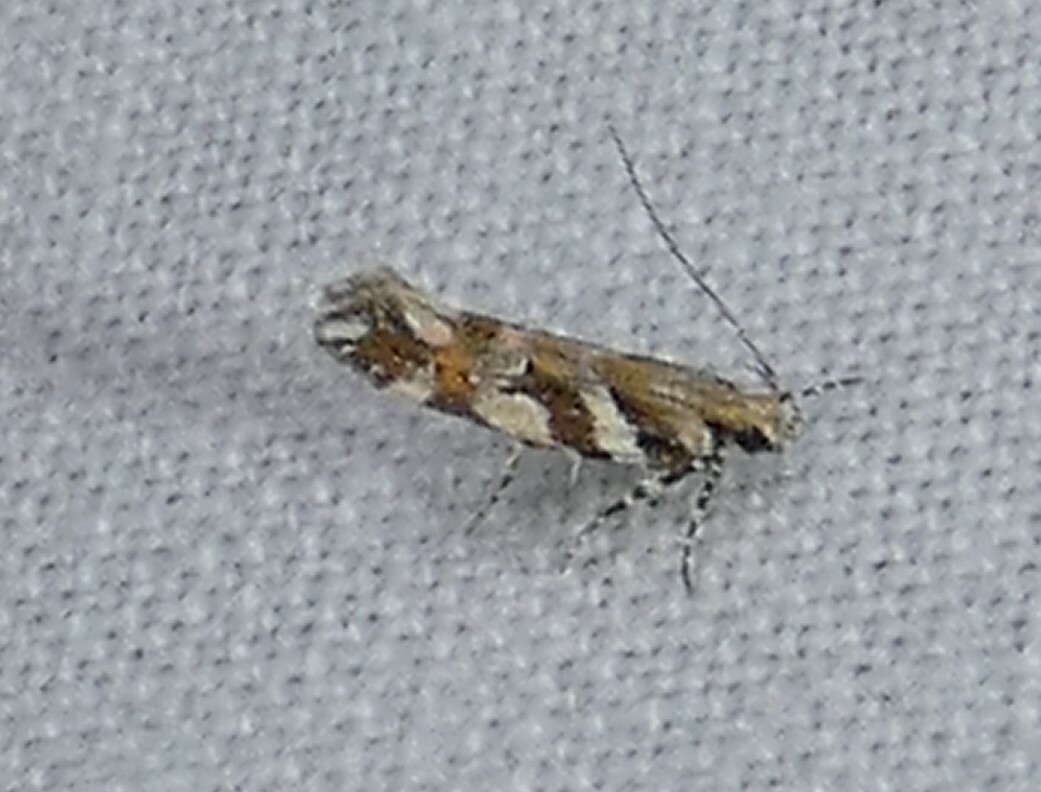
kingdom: Animalia
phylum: Arthropoda
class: Insecta
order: Lepidoptera
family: Gelechiidae
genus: Aristotelia
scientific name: Aristotelia roseosuffusella
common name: Pink-washed aristotelia moth
